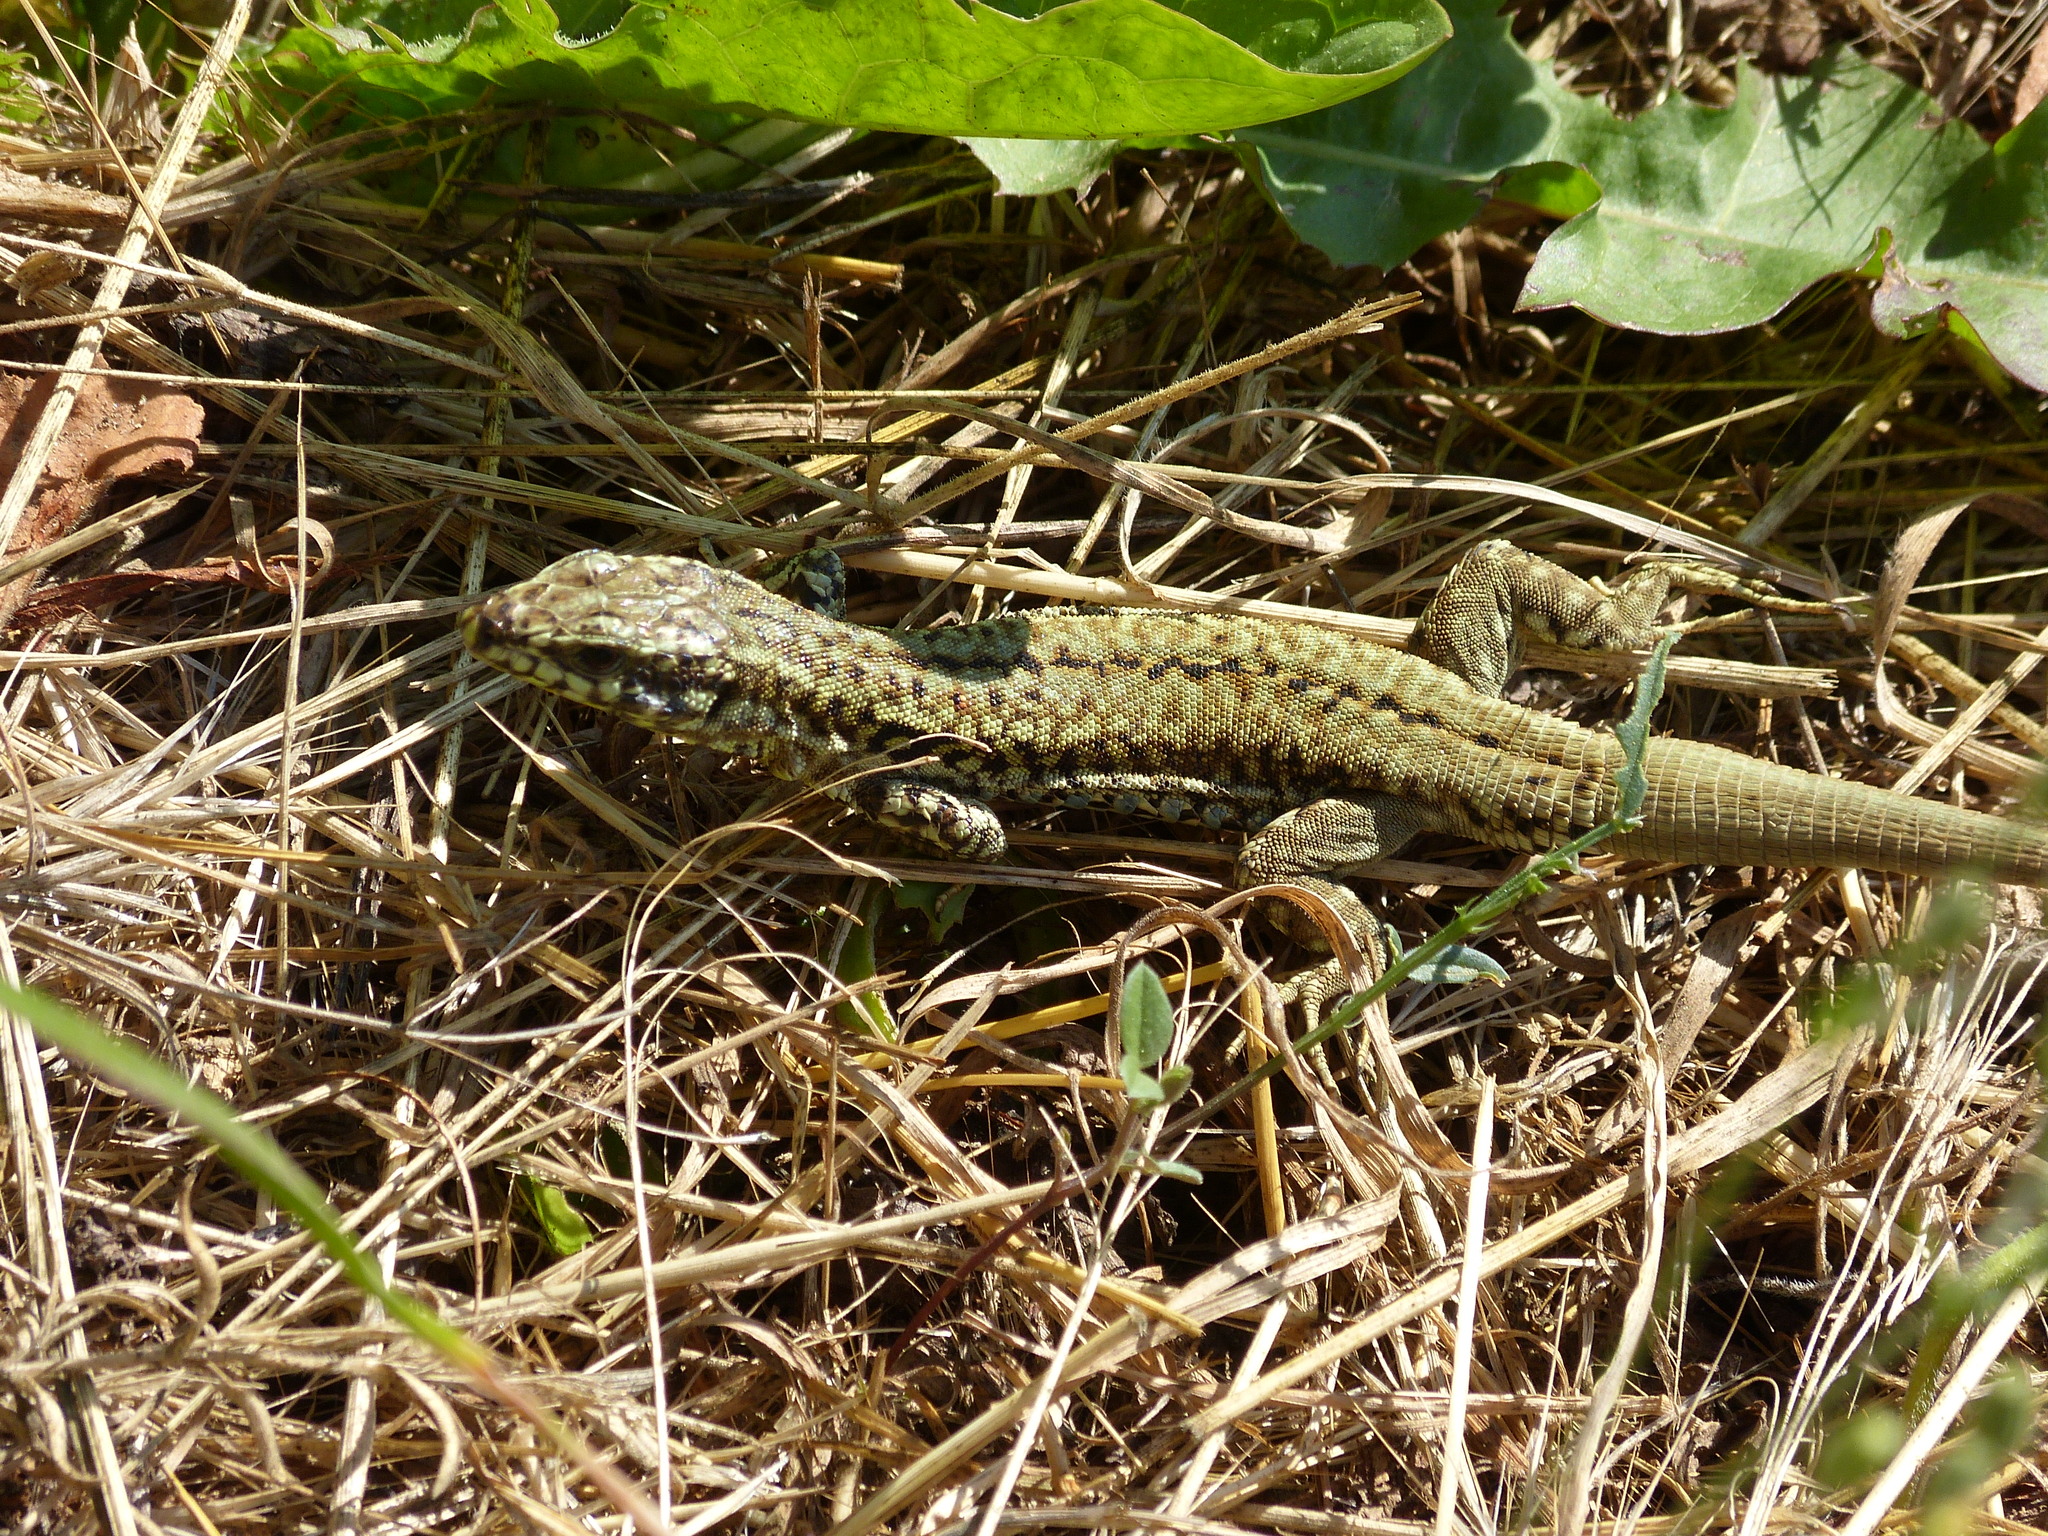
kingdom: Animalia
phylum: Chordata
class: Squamata
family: Lacertidae
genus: Podarcis
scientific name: Podarcis muralis
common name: Common wall lizard
